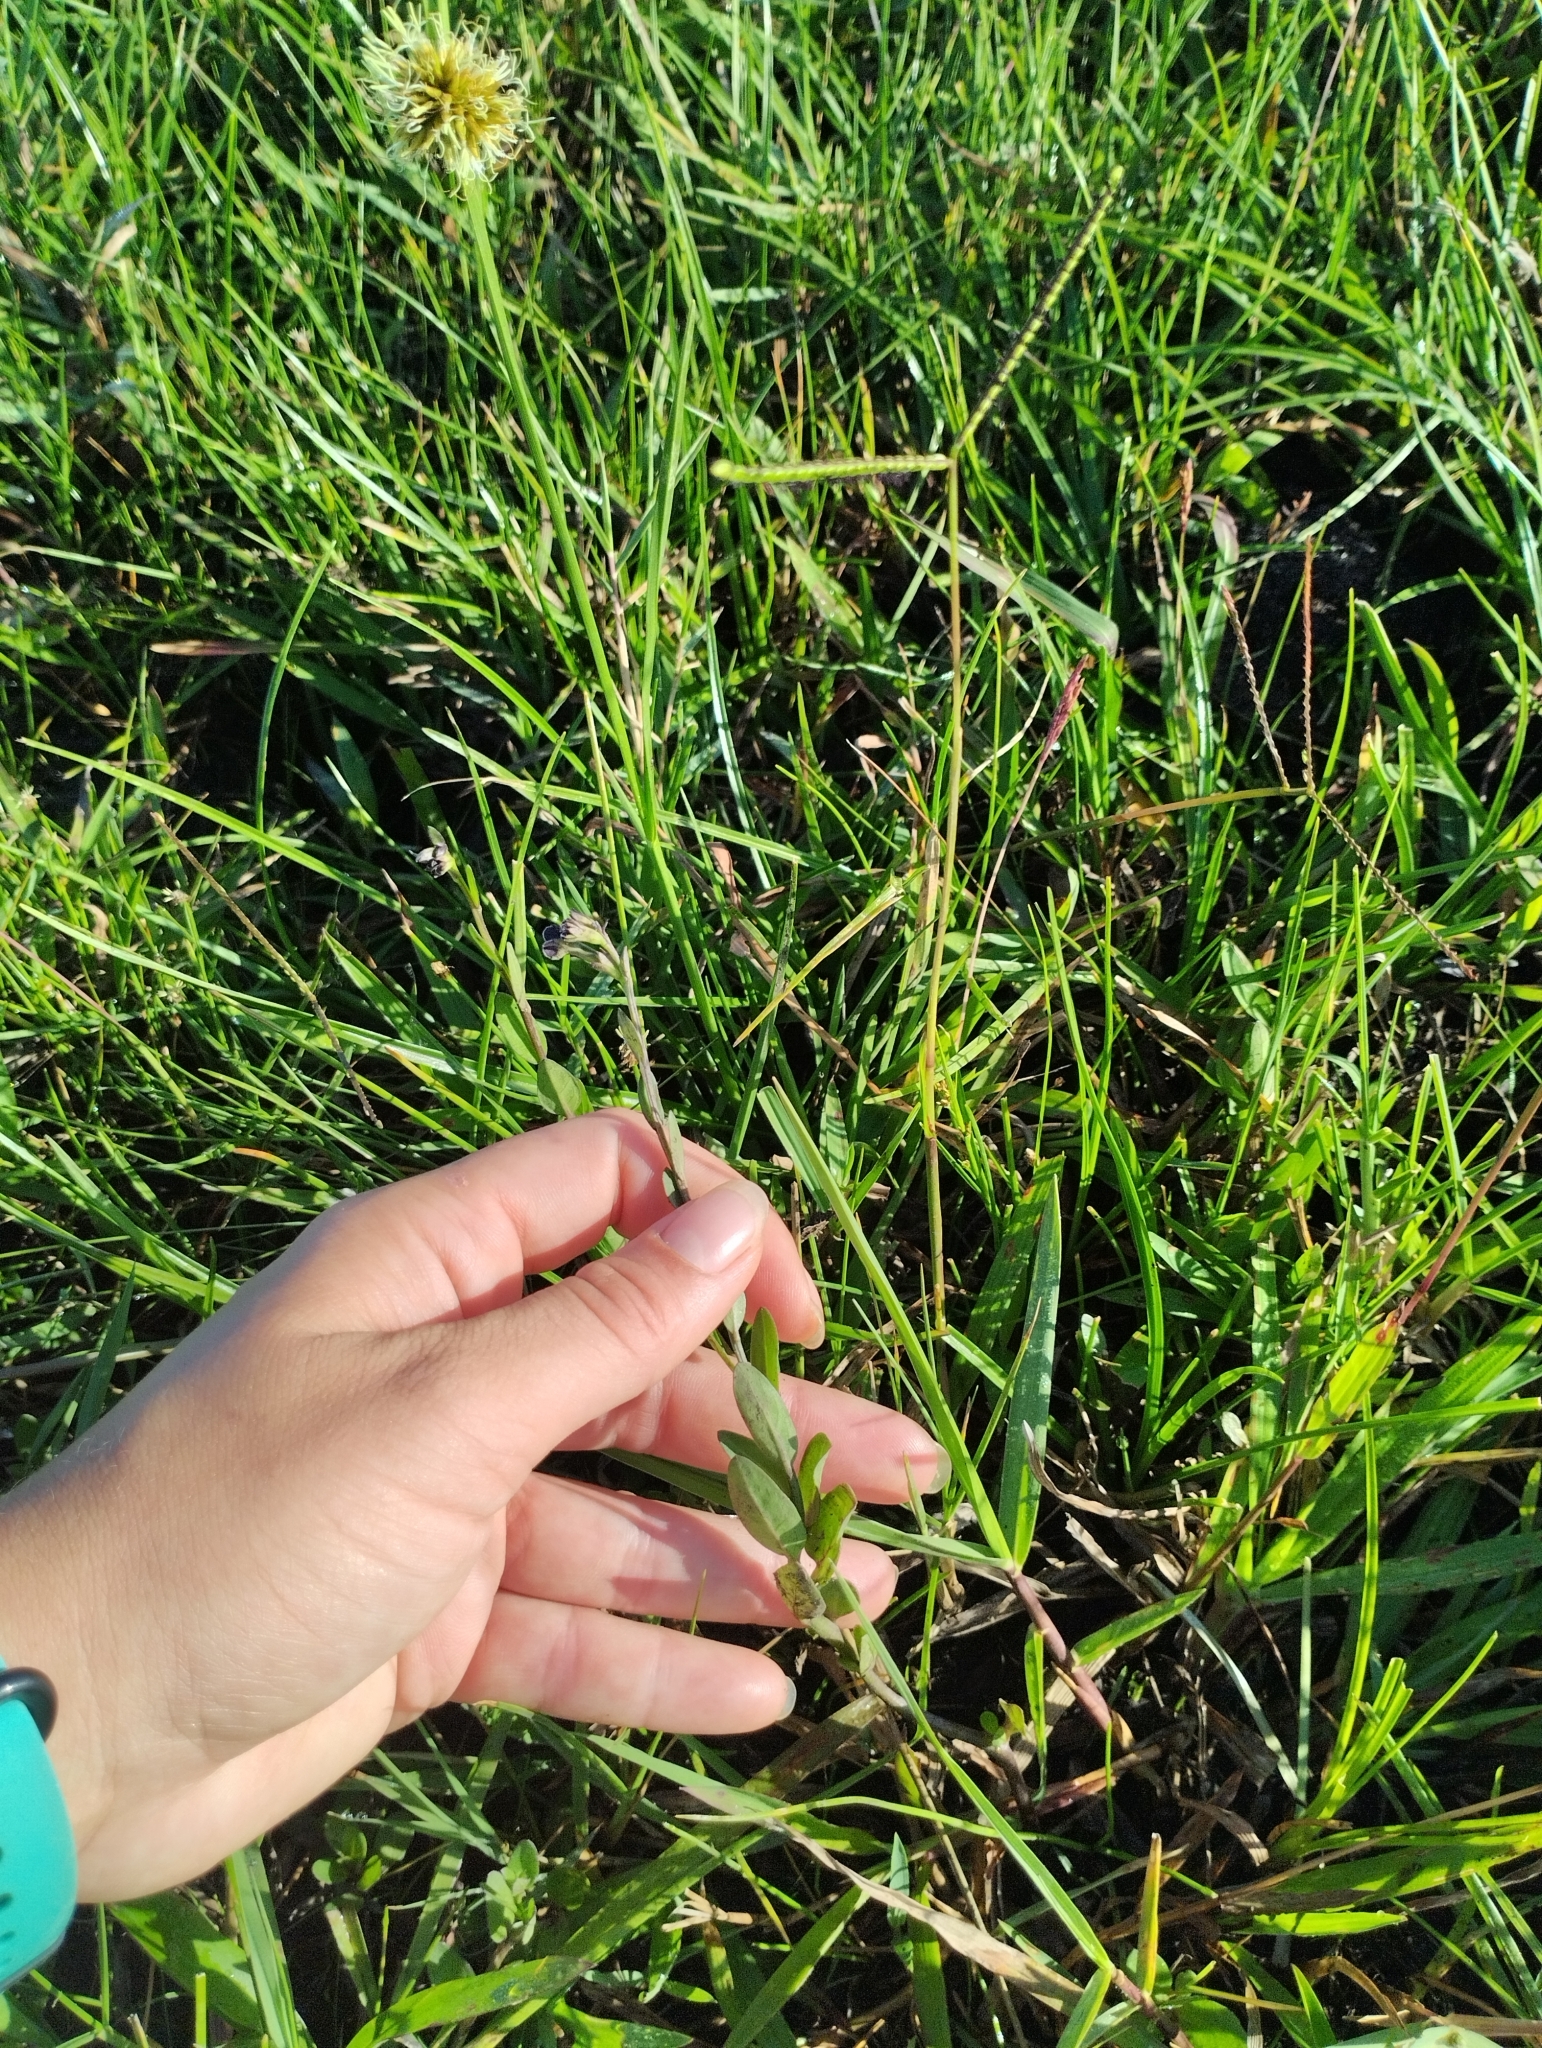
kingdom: Plantae
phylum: Tracheophyta
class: Magnoliopsida
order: Solanales
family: Solanaceae
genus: Schwenckia
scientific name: Schwenckia curviflora
